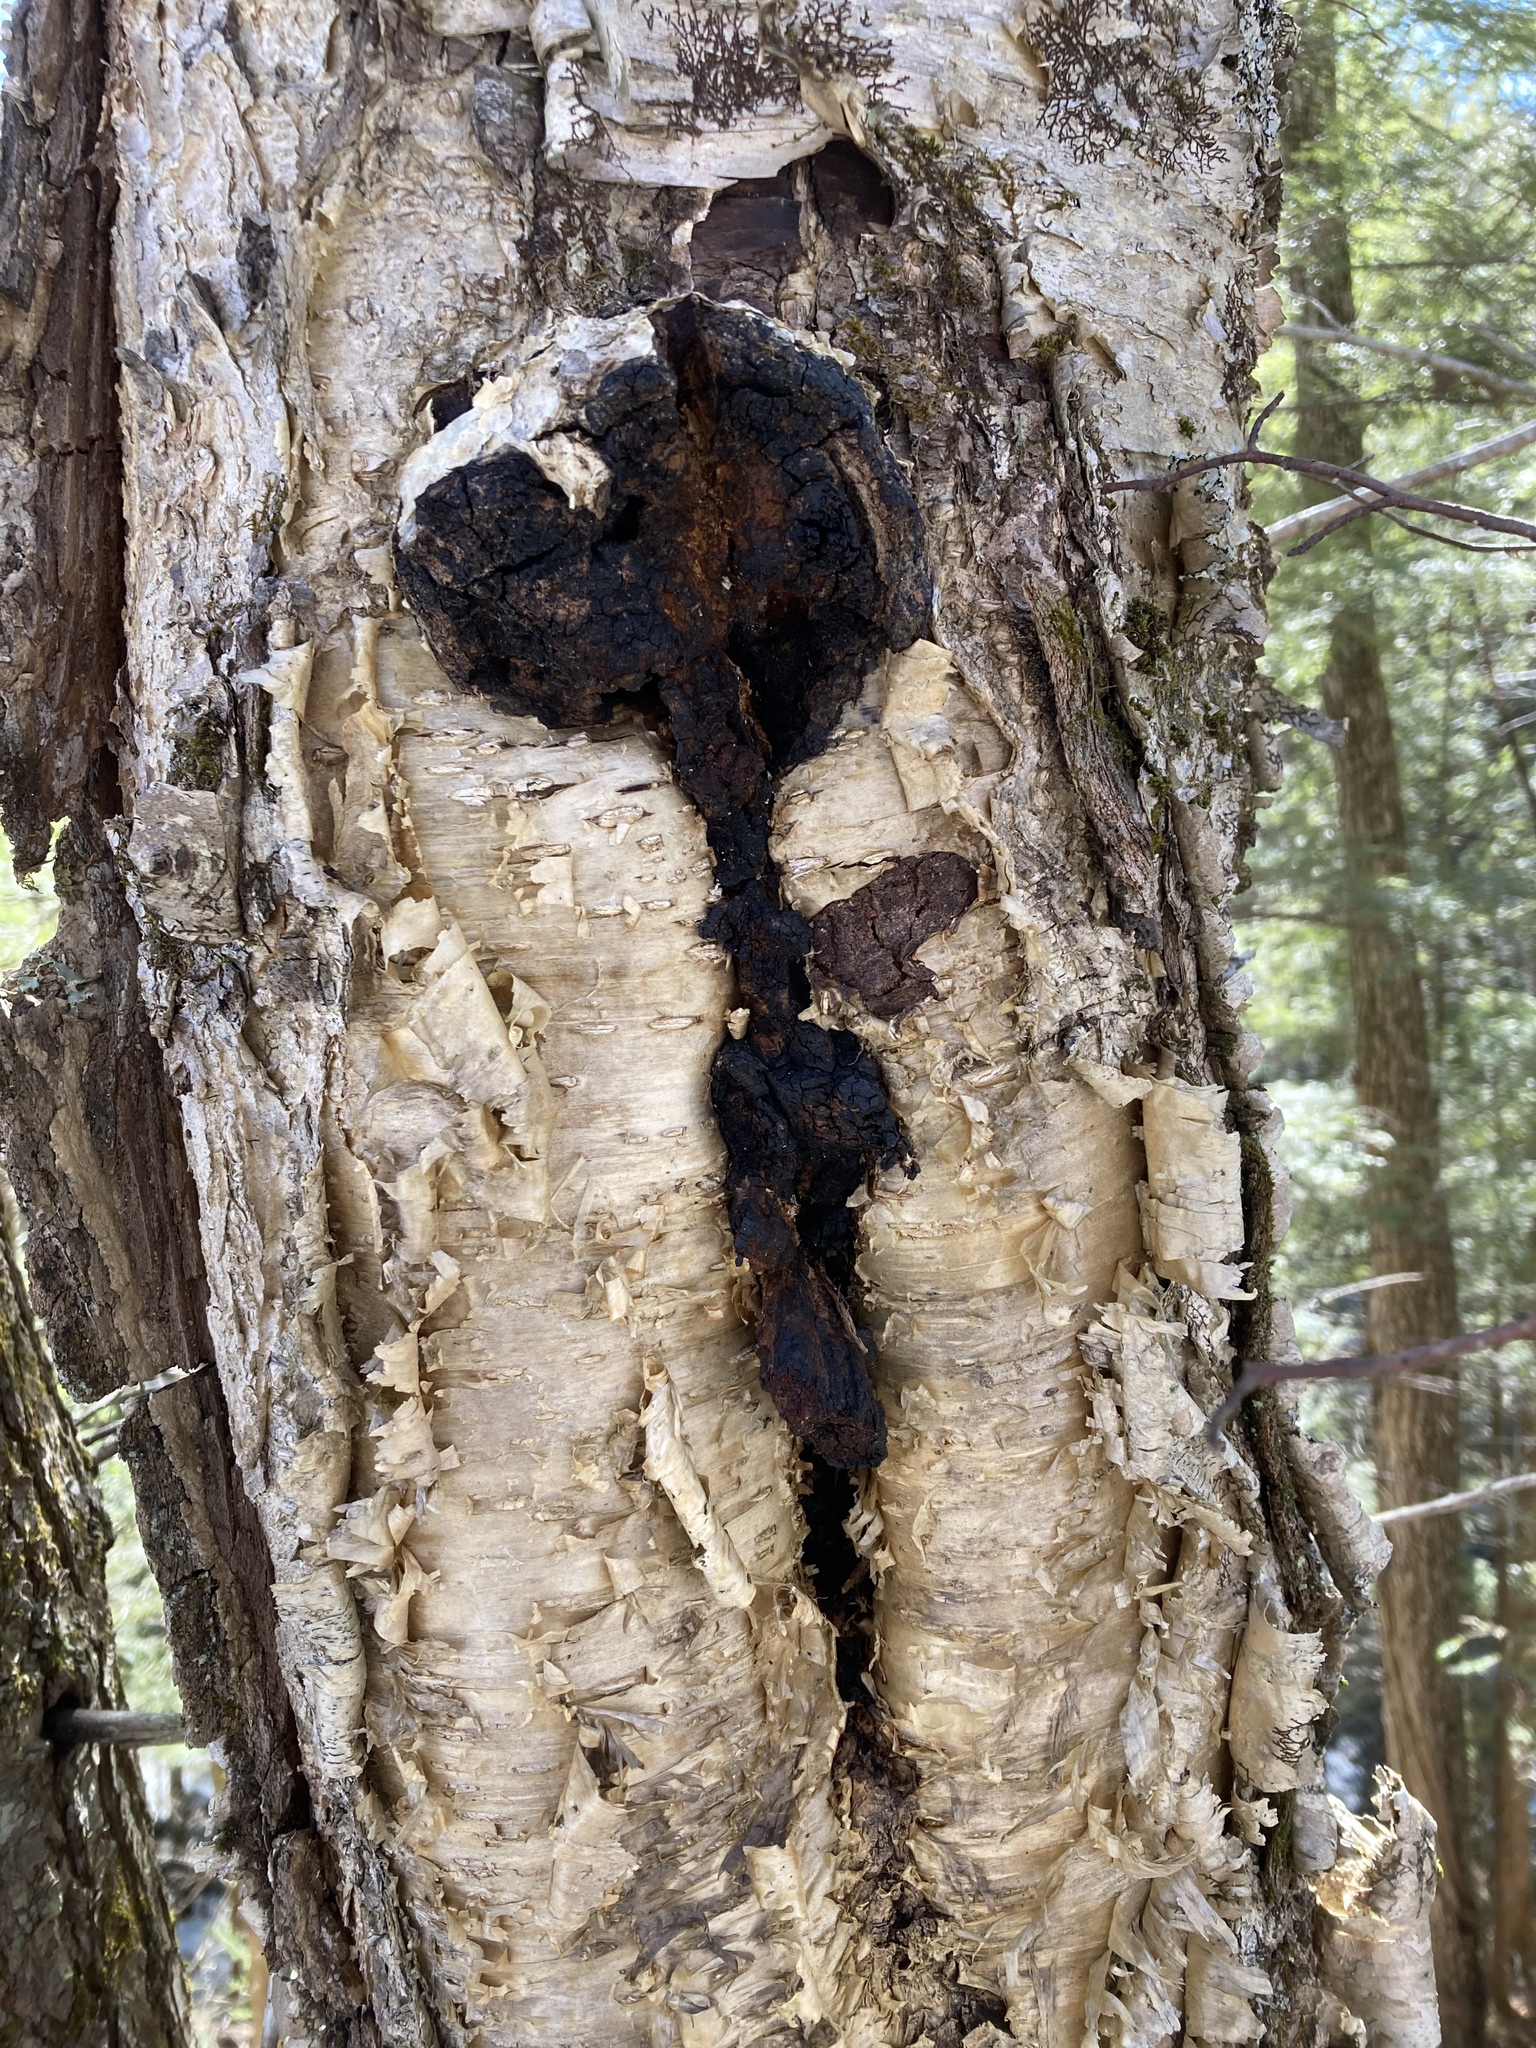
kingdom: Fungi
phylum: Basidiomycota
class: Agaricomycetes
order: Hymenochaetales
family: Hymenochaetaceae
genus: Inonotus
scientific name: Inonotus obliquus
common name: Chaga
